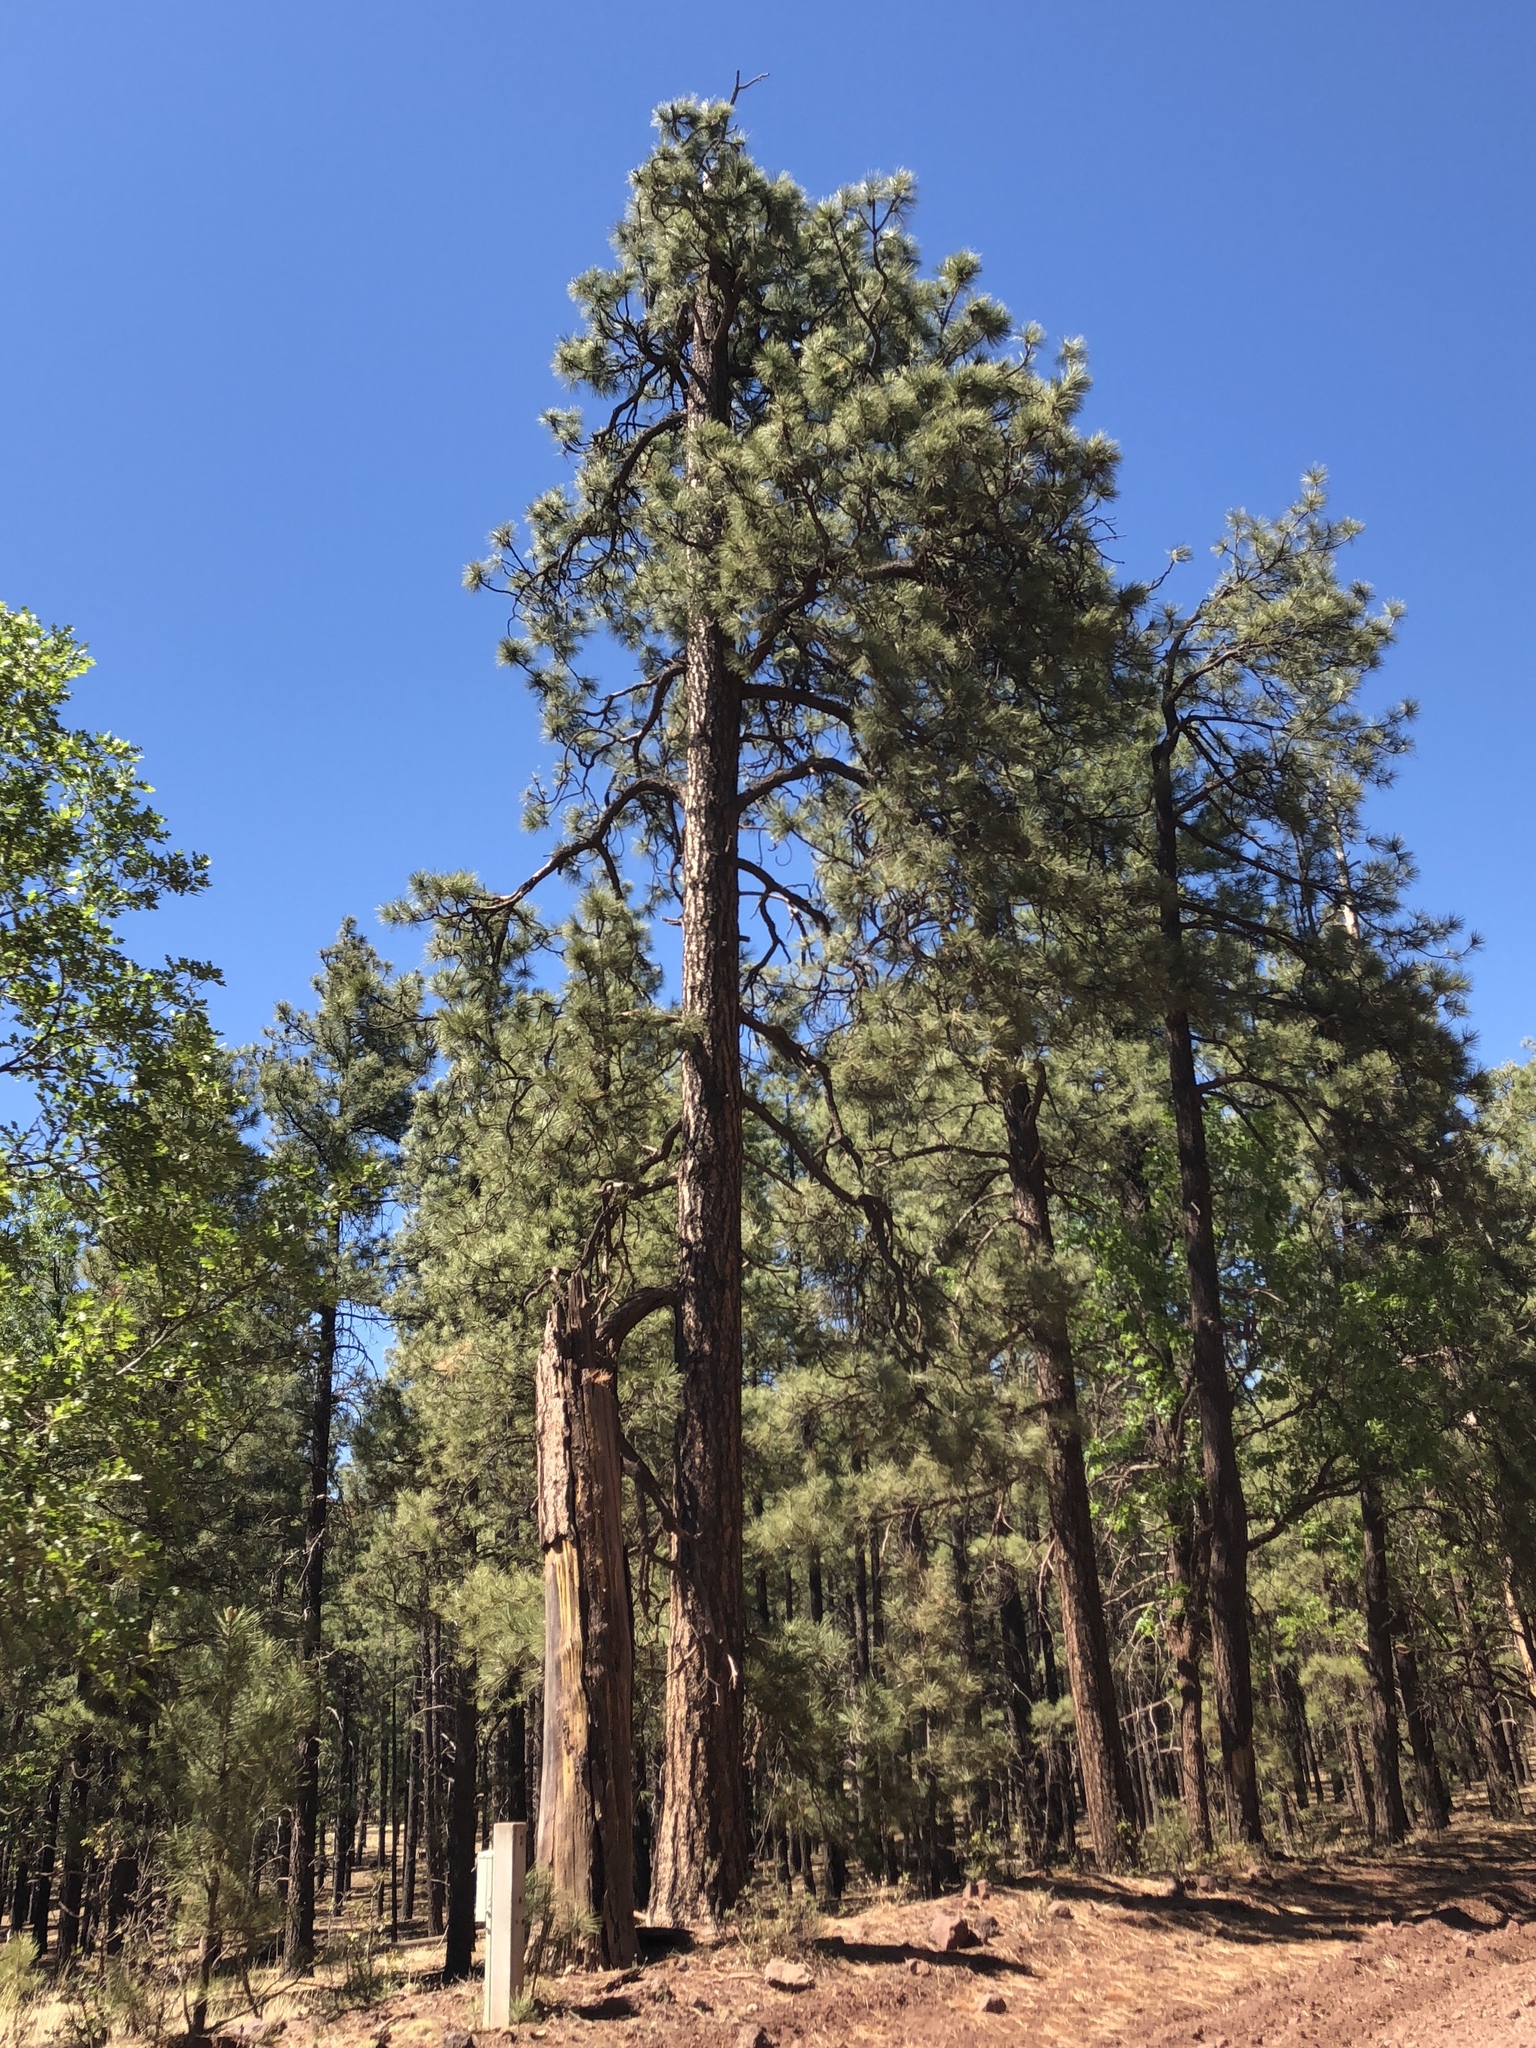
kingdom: Plantae
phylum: Tracheophyta
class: Pinopsida
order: Pinales
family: Pinaceae
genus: Pinus
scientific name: Pinus ponderosa
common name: Western yellow-pine
